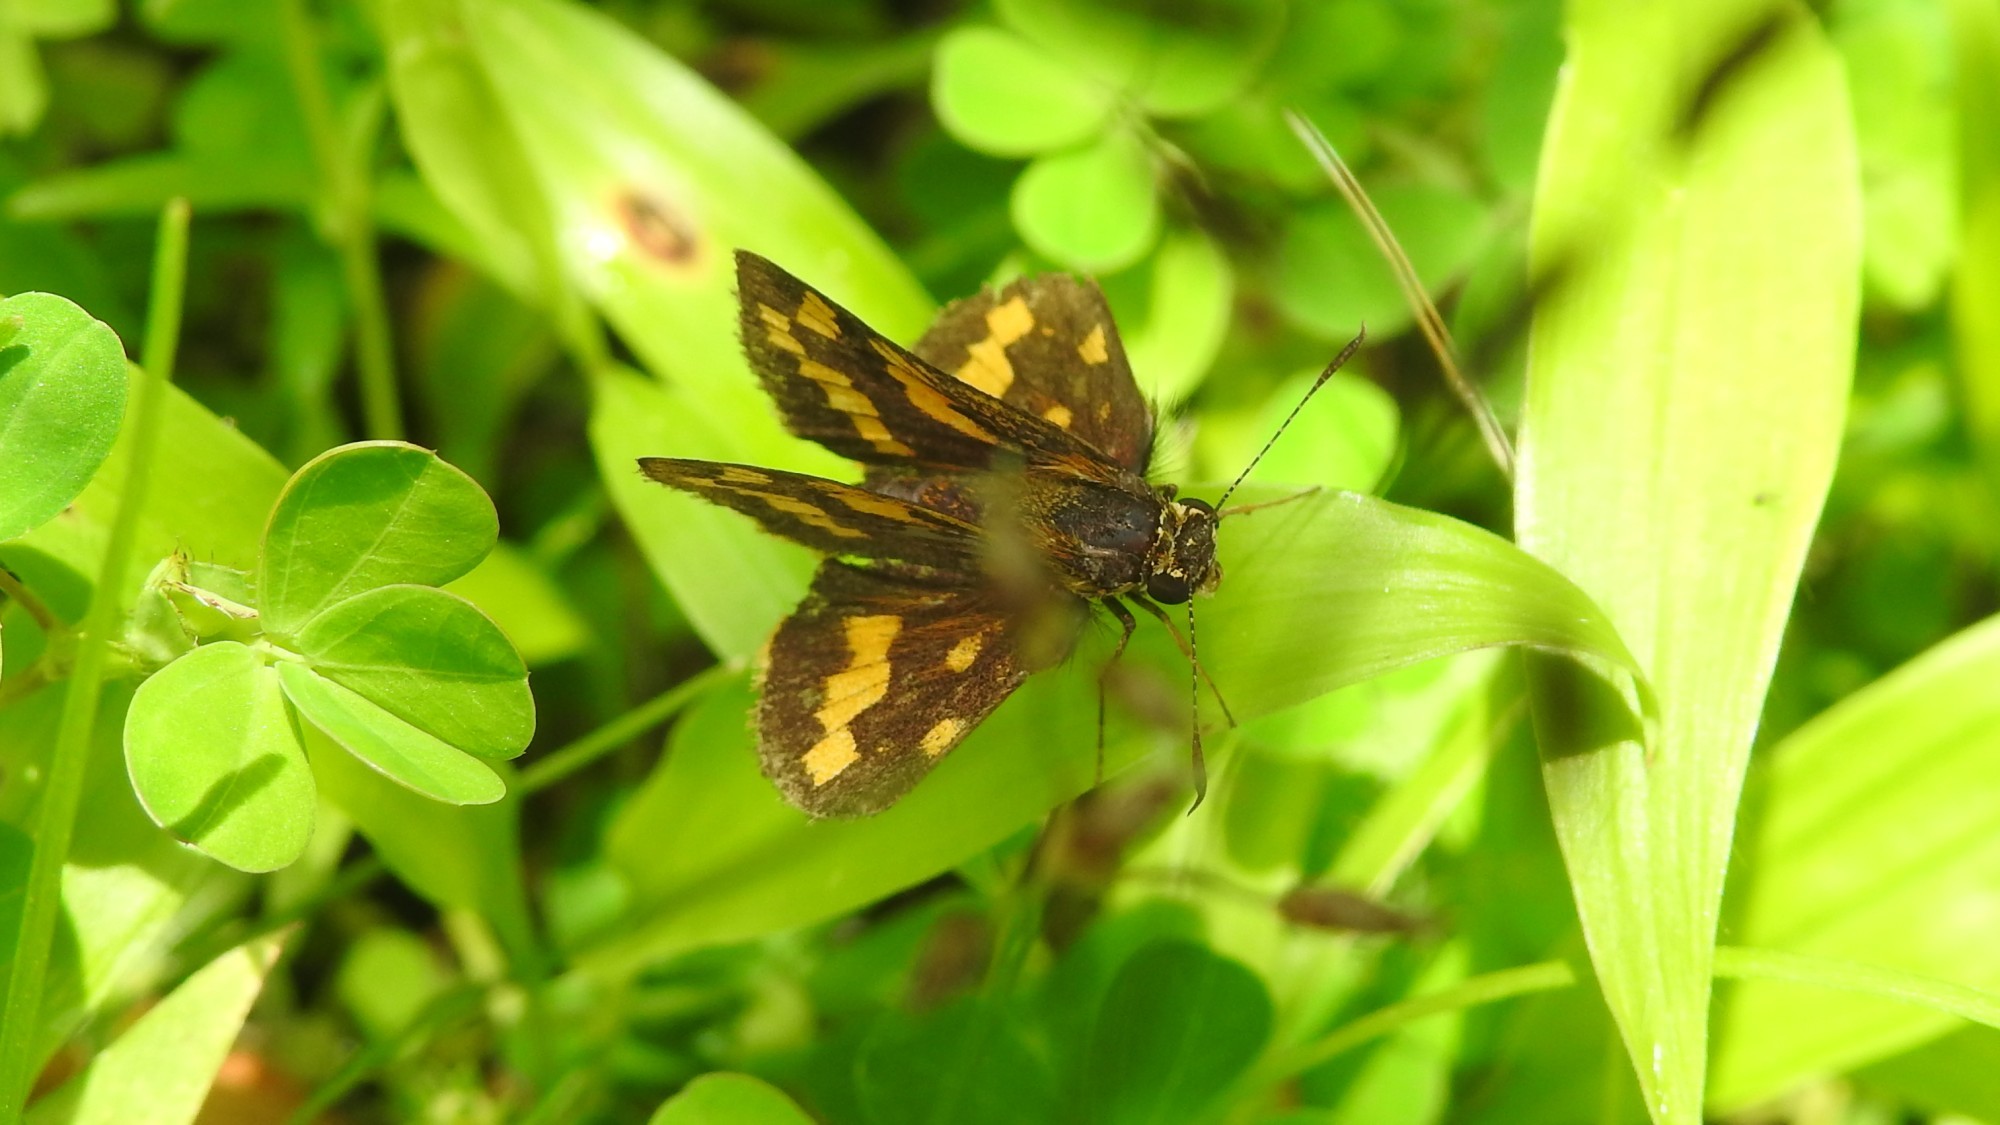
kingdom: Animalia
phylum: Arthropoda
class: Insecta
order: Lepidoptera
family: Hesperiidae
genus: Potanthus
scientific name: Potanthus palnia
